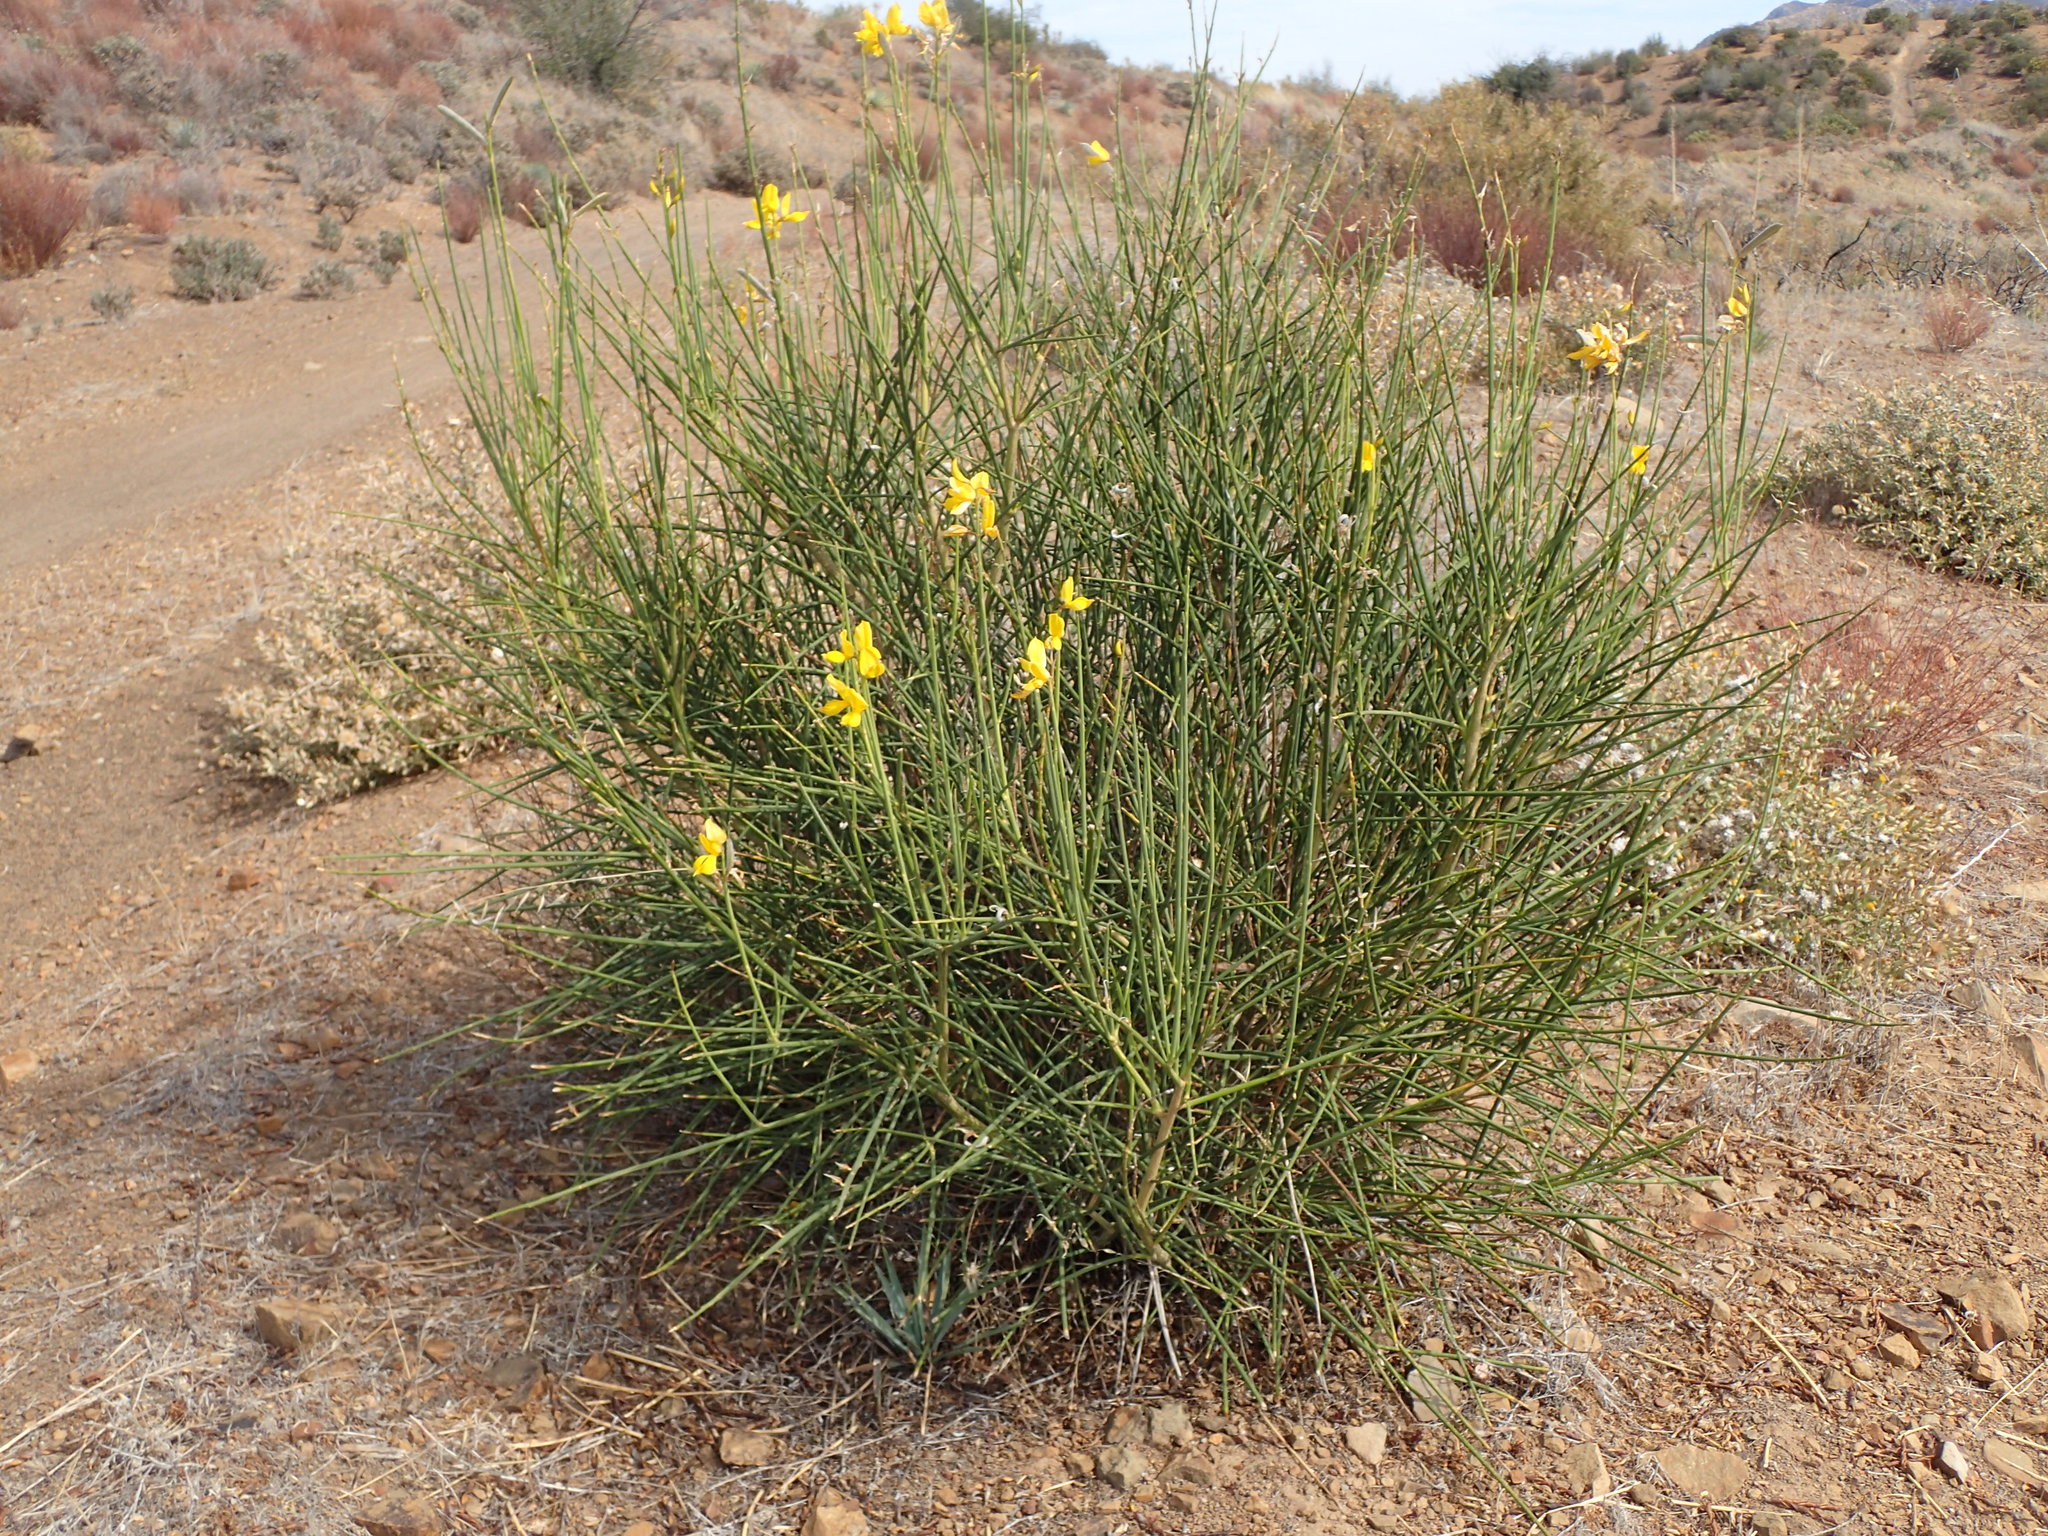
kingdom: Plantae
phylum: Tracheophyta
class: Magnoliopsida
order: Fabales
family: Fabaceae
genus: Spartium
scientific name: Spartium junceum
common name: Spanish broom
